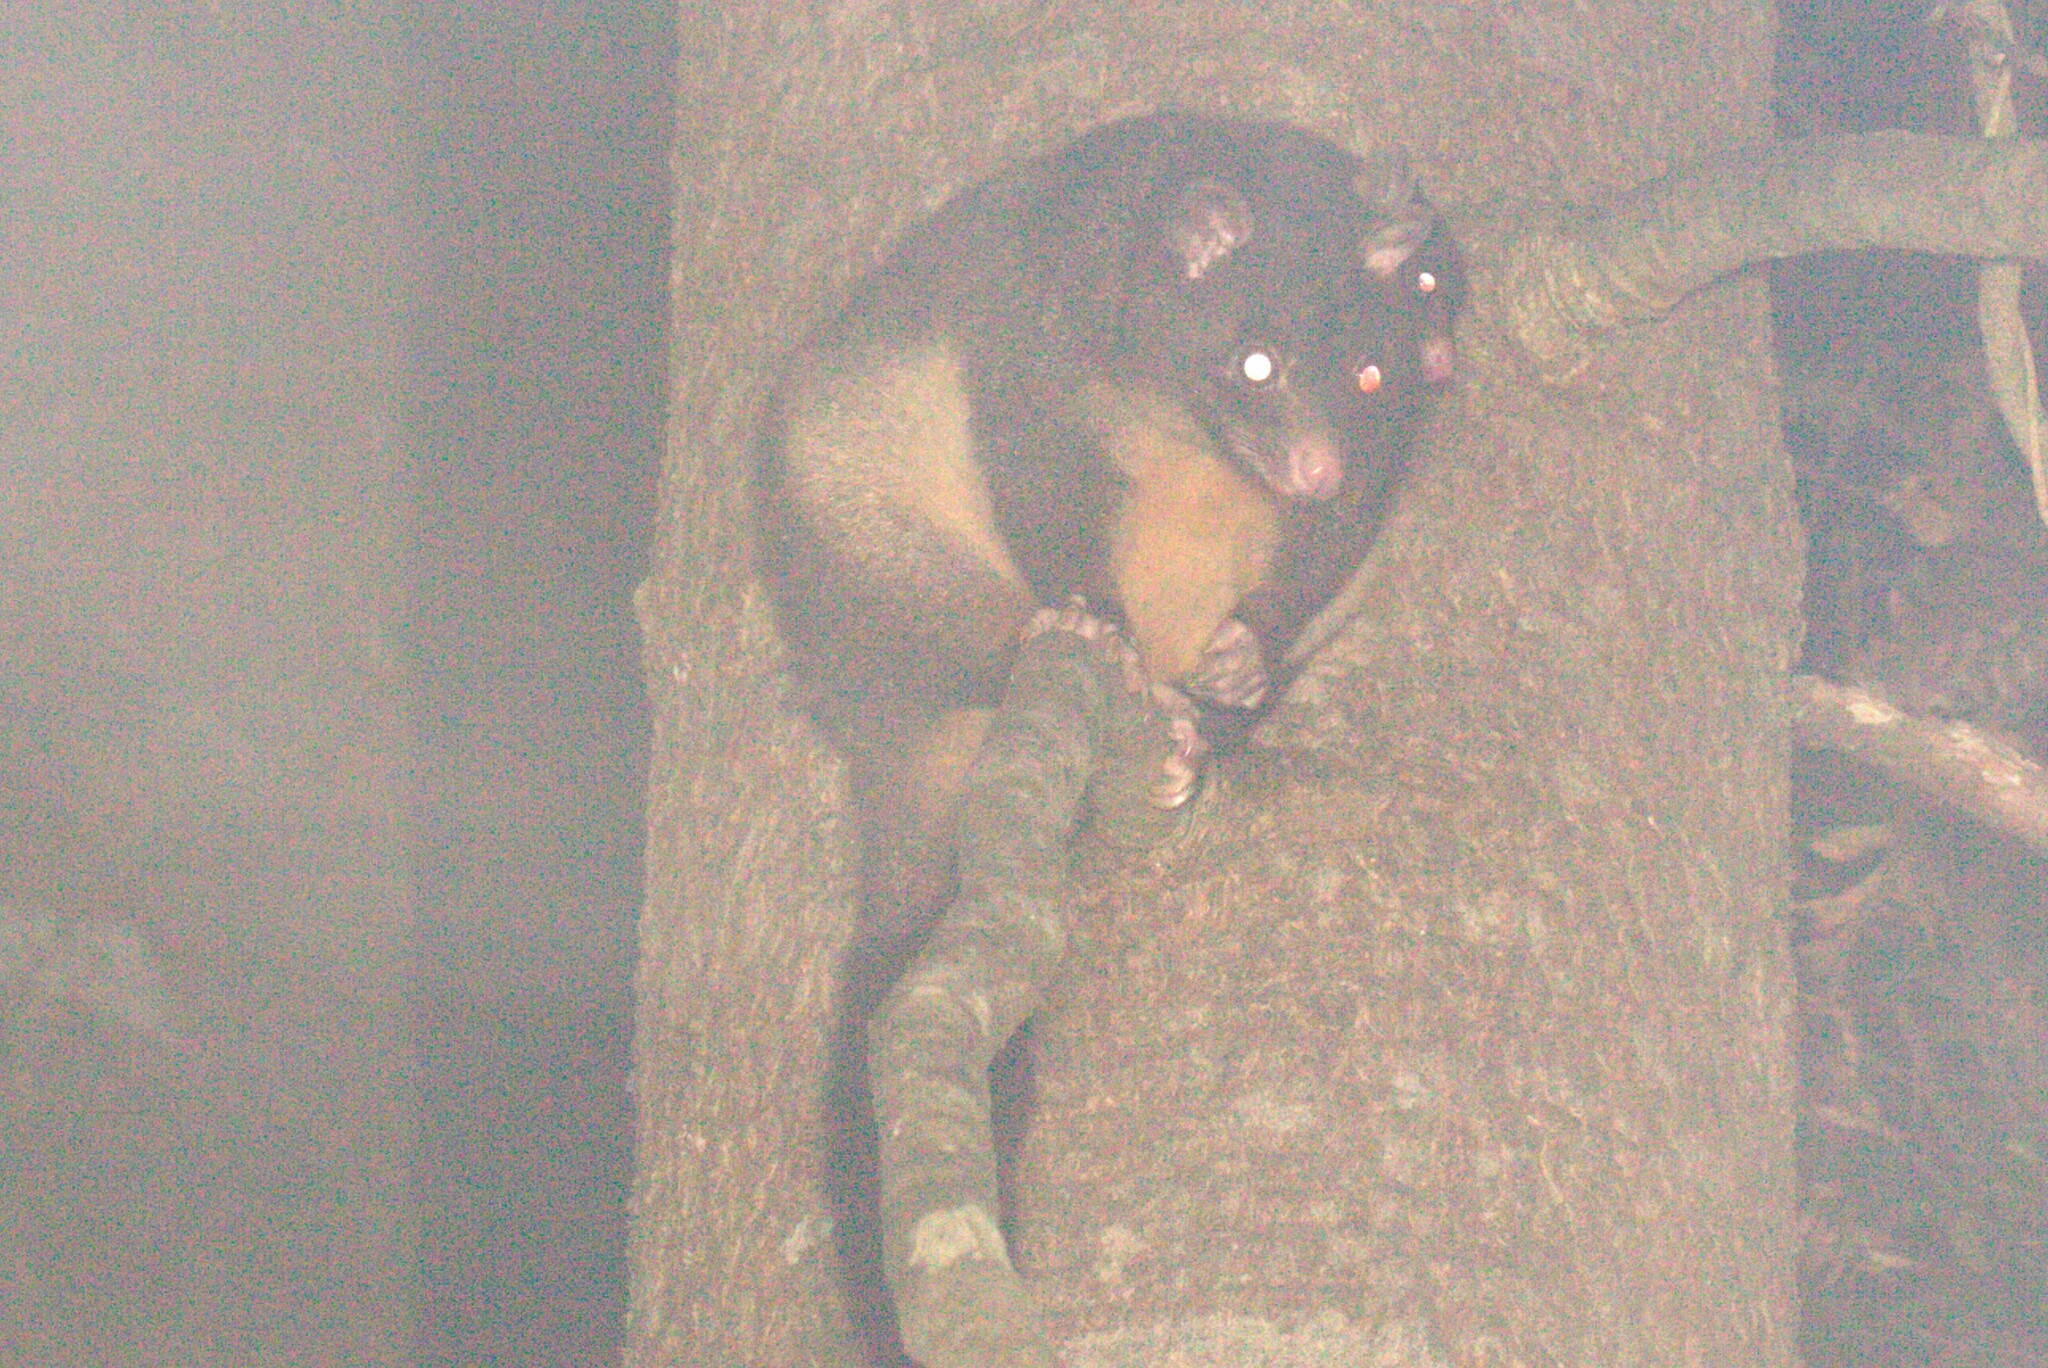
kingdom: Animalia
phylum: Chordata
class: Mammalia
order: Diprotodontia
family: Phalangeridae
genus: Trichosurus
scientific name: Trichosurus caninus
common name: Short-eared possum
